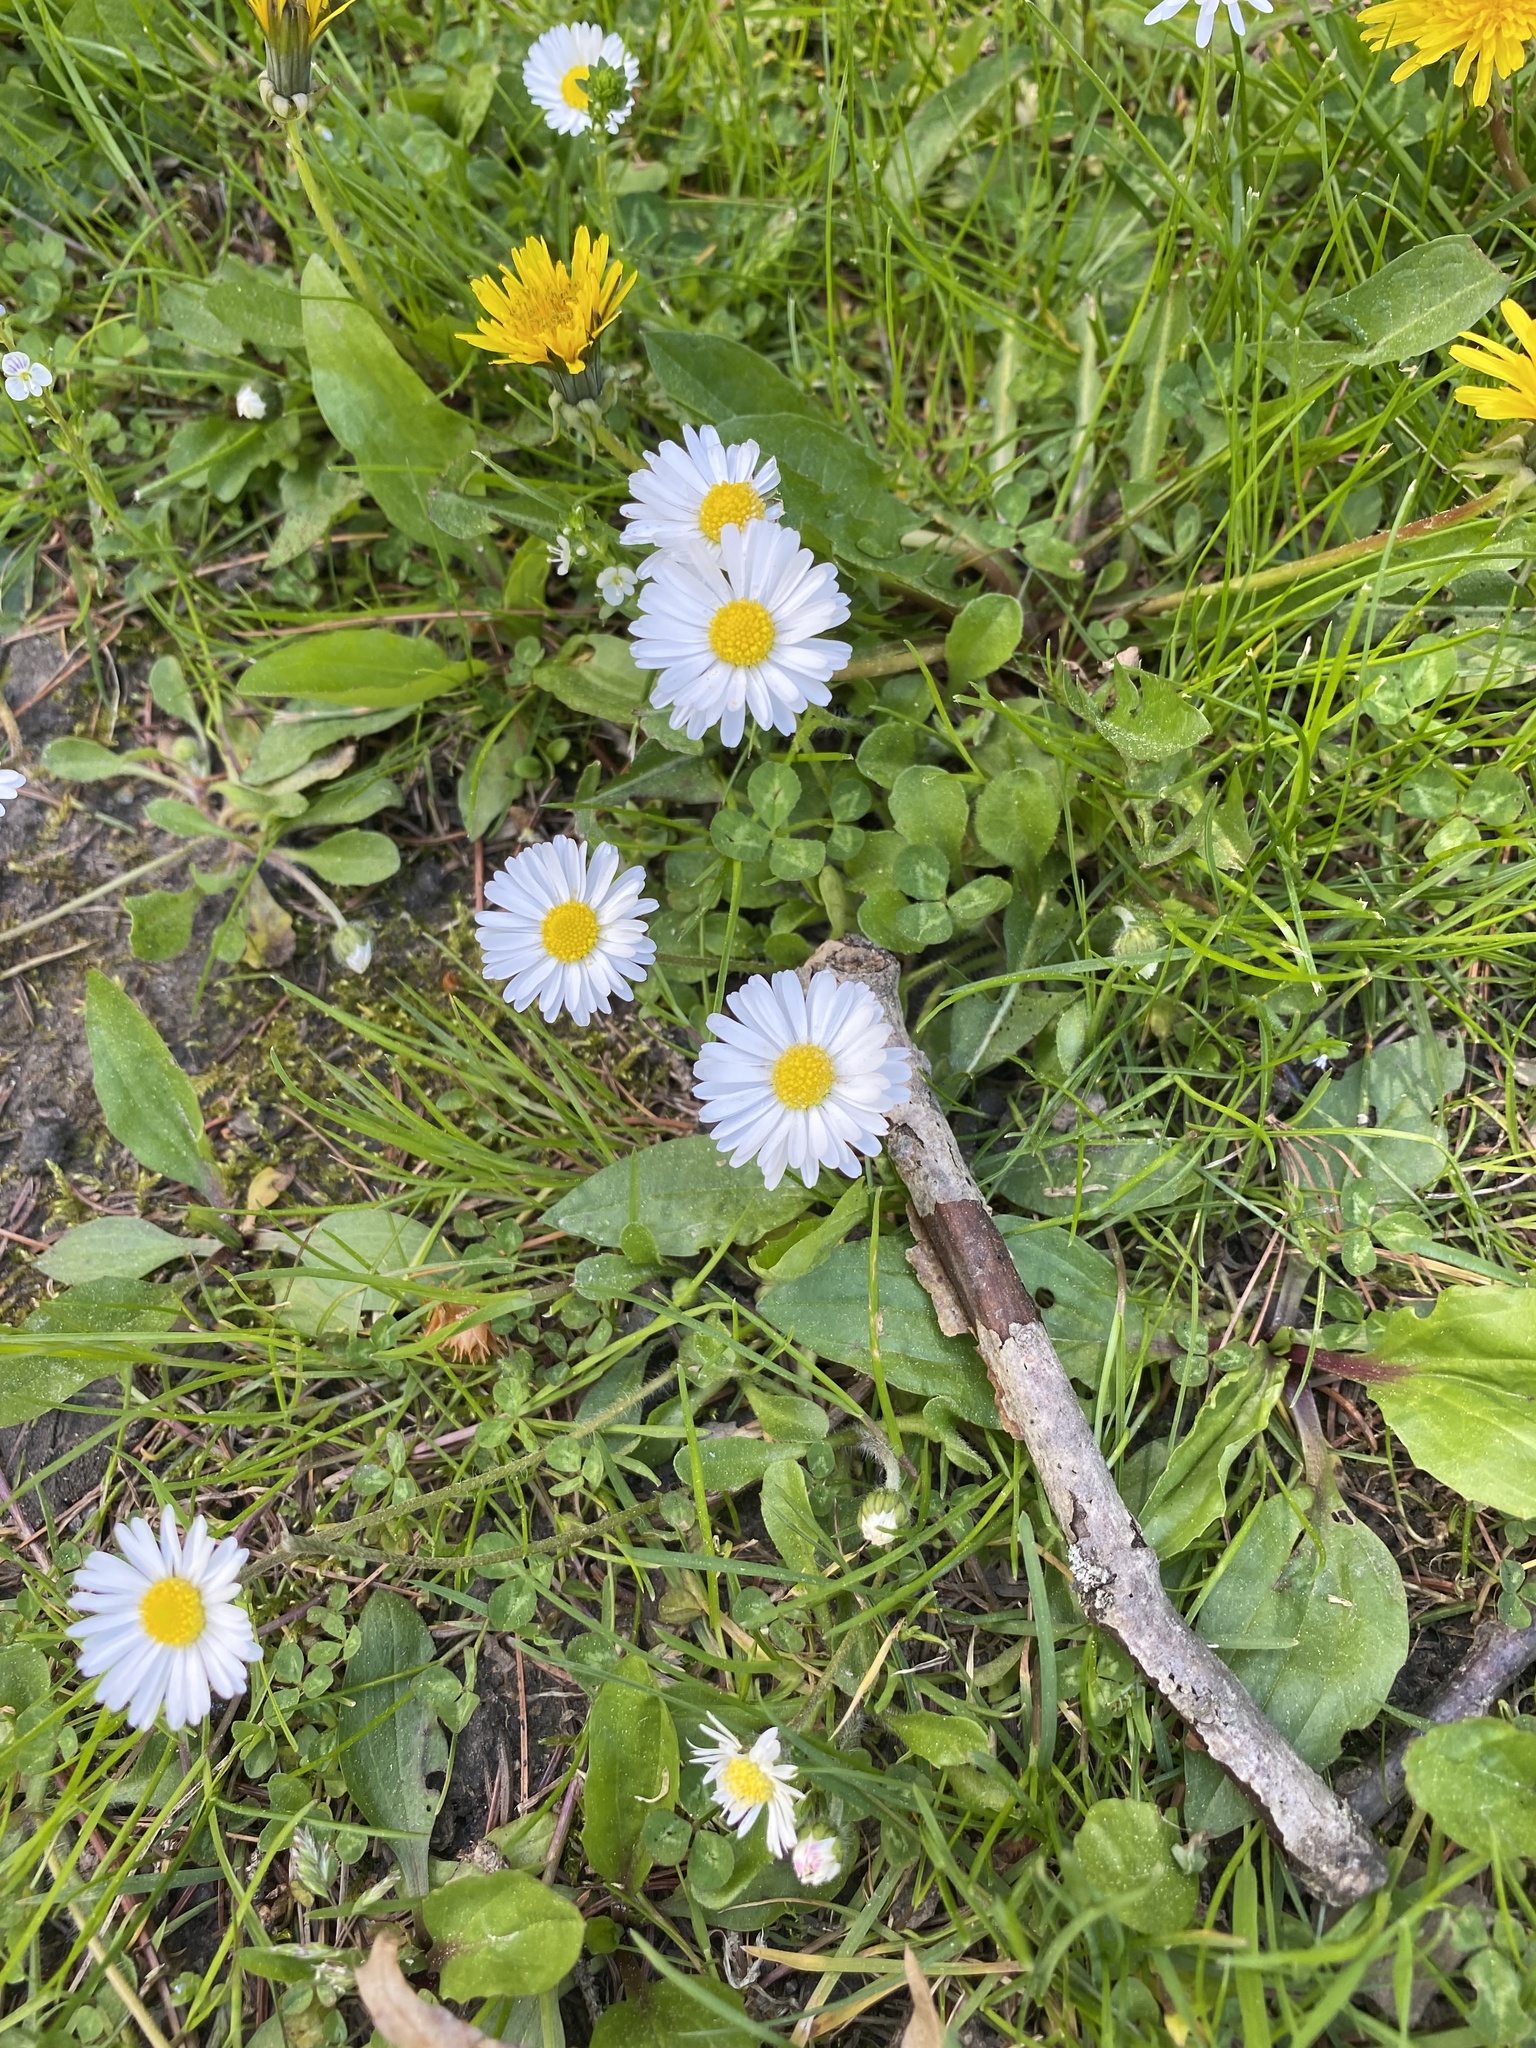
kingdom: Plantae
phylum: Tracheophyta
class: Magnoliopsida
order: Asterales
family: Asteraceae
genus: Bellis
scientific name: Bellis perennis
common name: Lawndaisy
